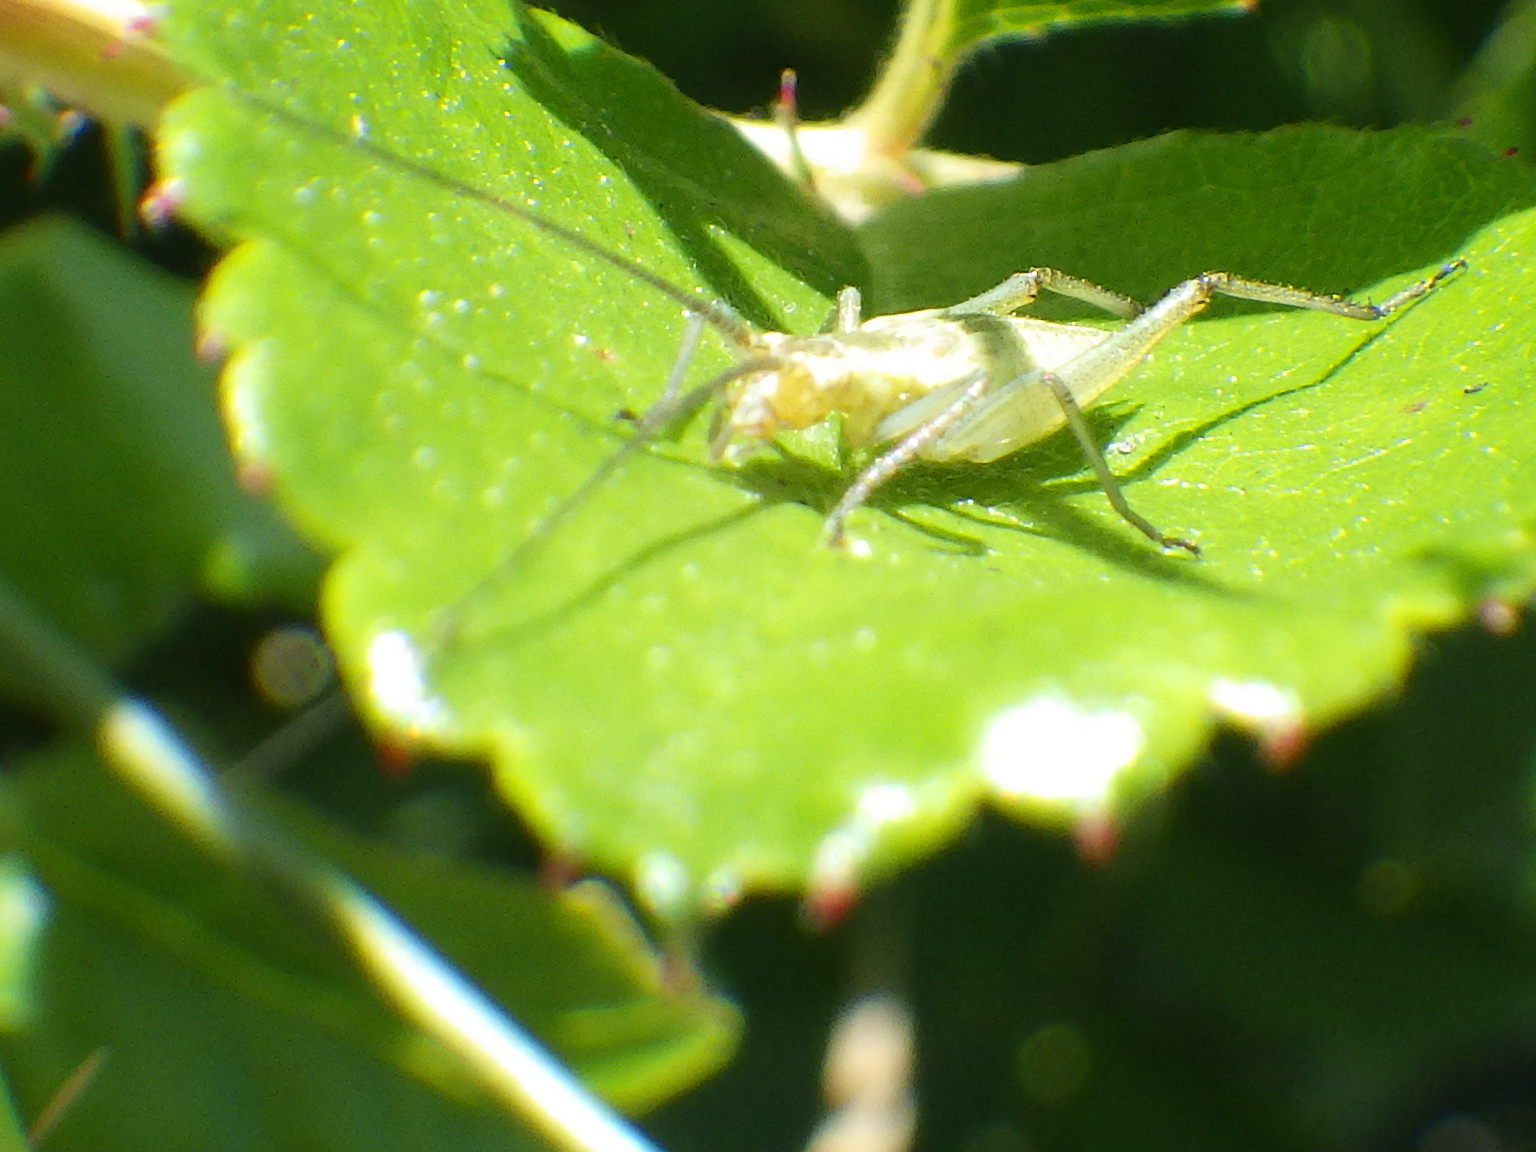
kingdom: Animalia
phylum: Arthropoda
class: Insecta
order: Orthoptera
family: Gryllidae
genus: Oecanthus
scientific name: Oecanthus nigricornis
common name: Black-horned tree cricket
